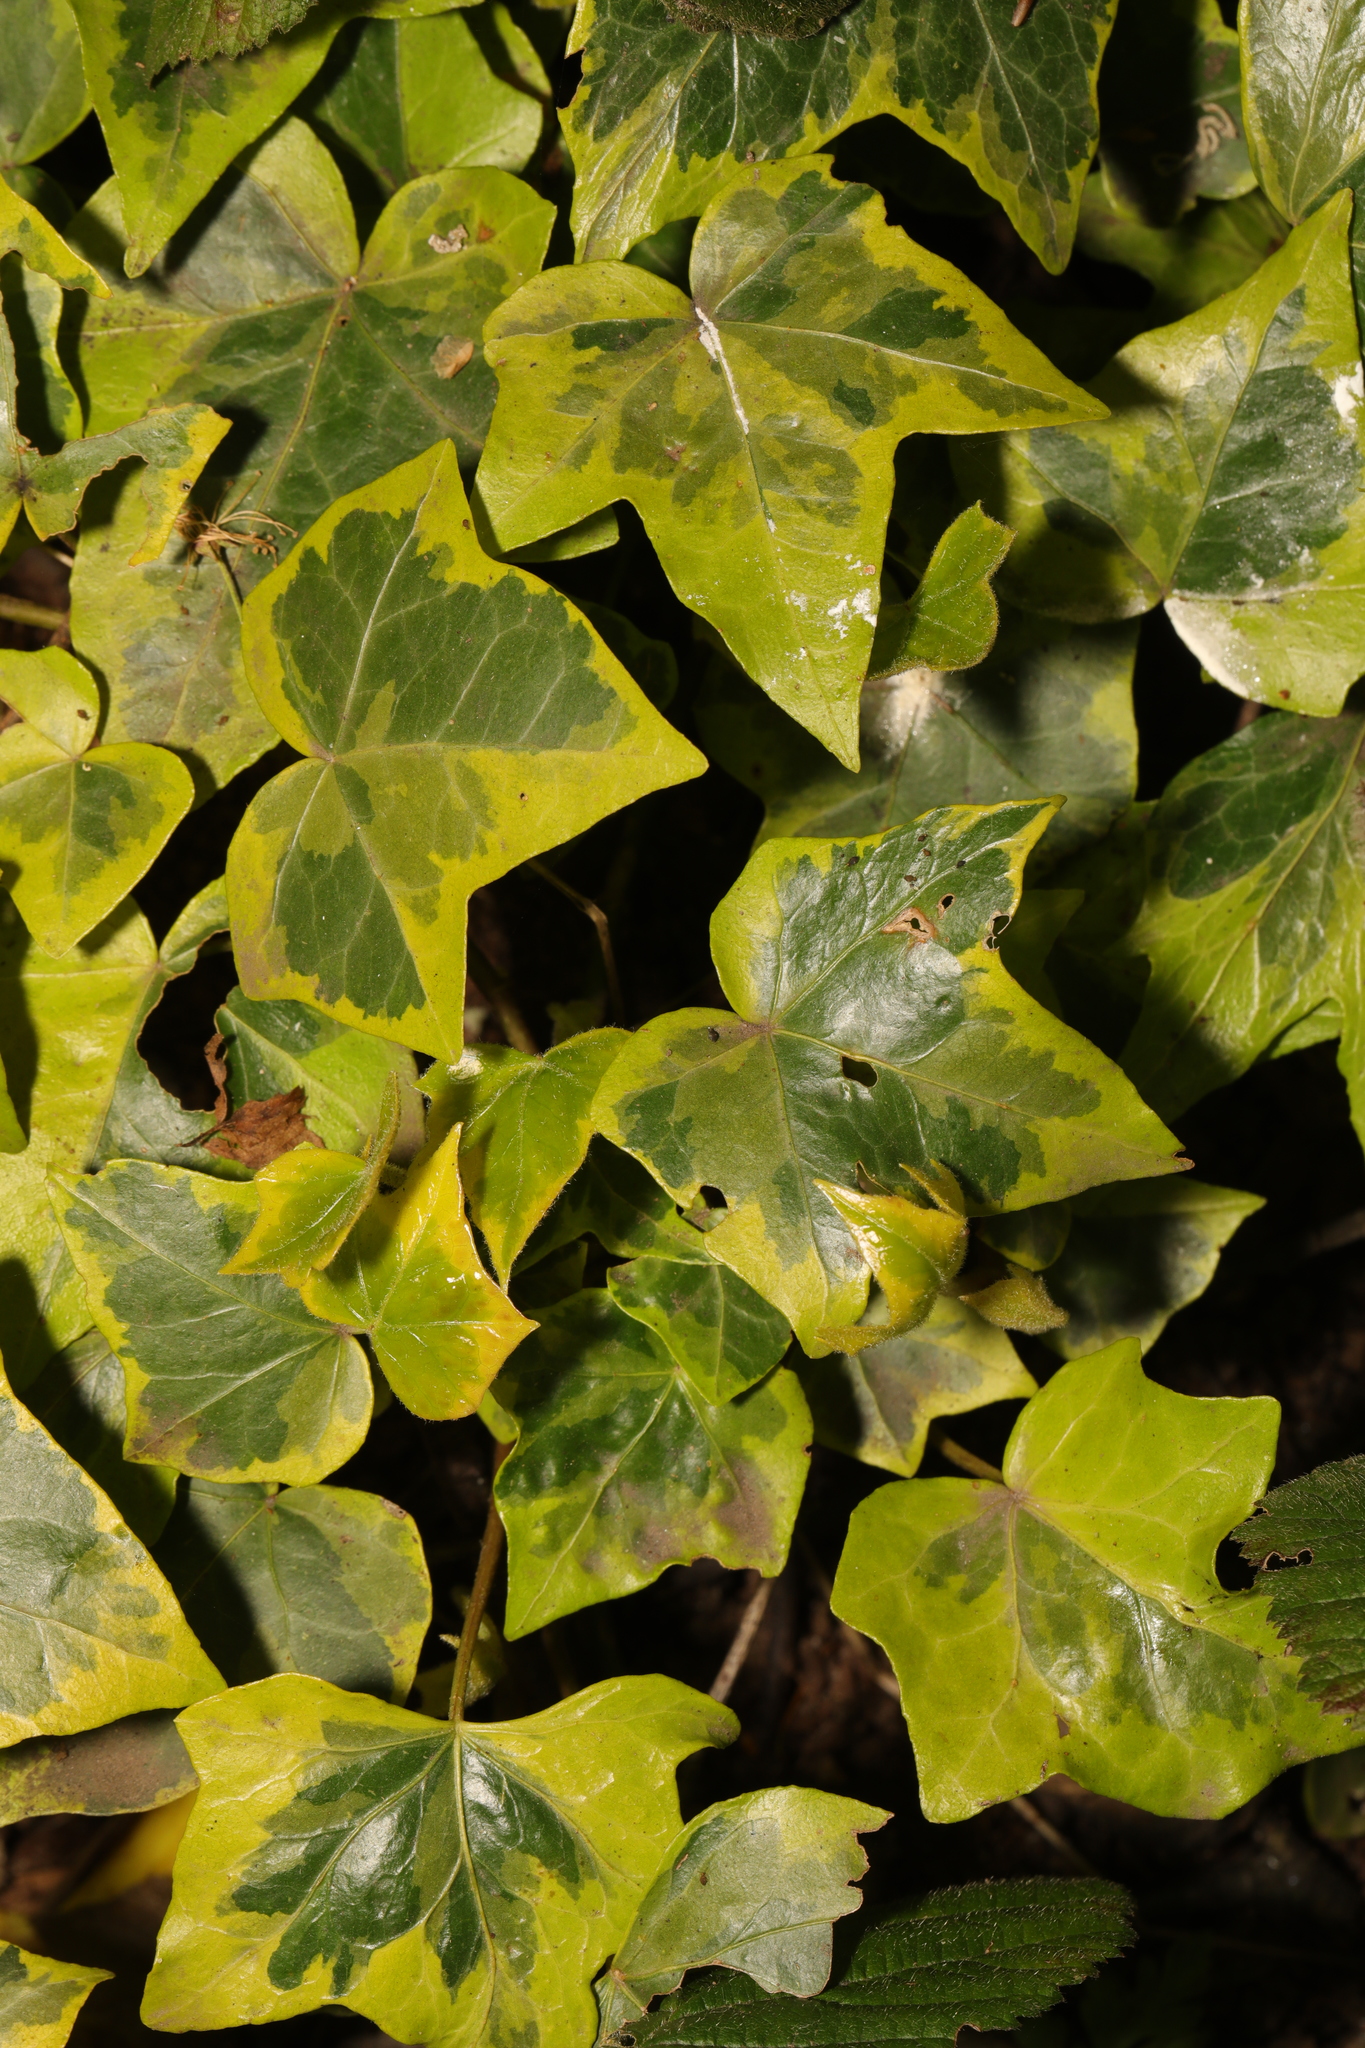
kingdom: Plantae
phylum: Tracheophyta
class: Magnoliopsida
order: Apiales
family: Araliaceae
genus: Hedera
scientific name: Hedera helix
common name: Ivy
